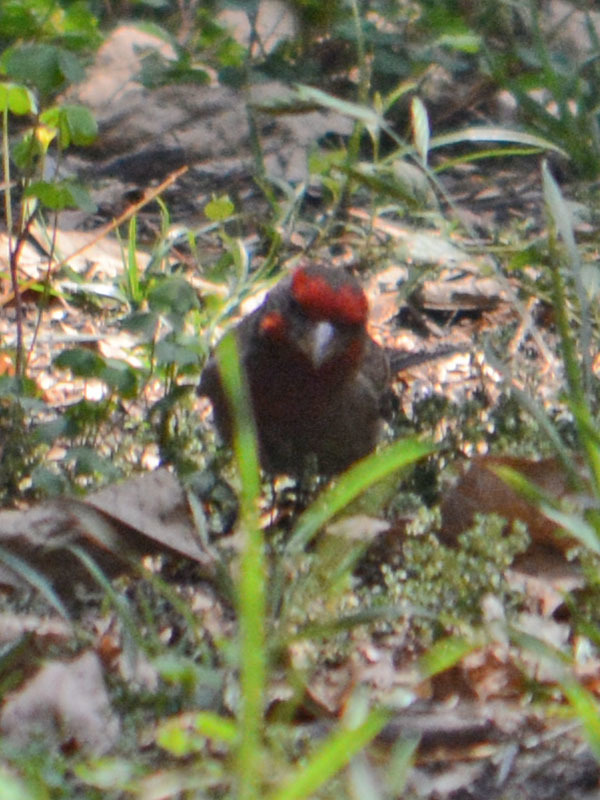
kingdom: Animalia
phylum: Chordata
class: Aves
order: Passeriformes
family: Fringillidae
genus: Haemorhous
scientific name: Haemorhous mexicanus
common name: House finch
